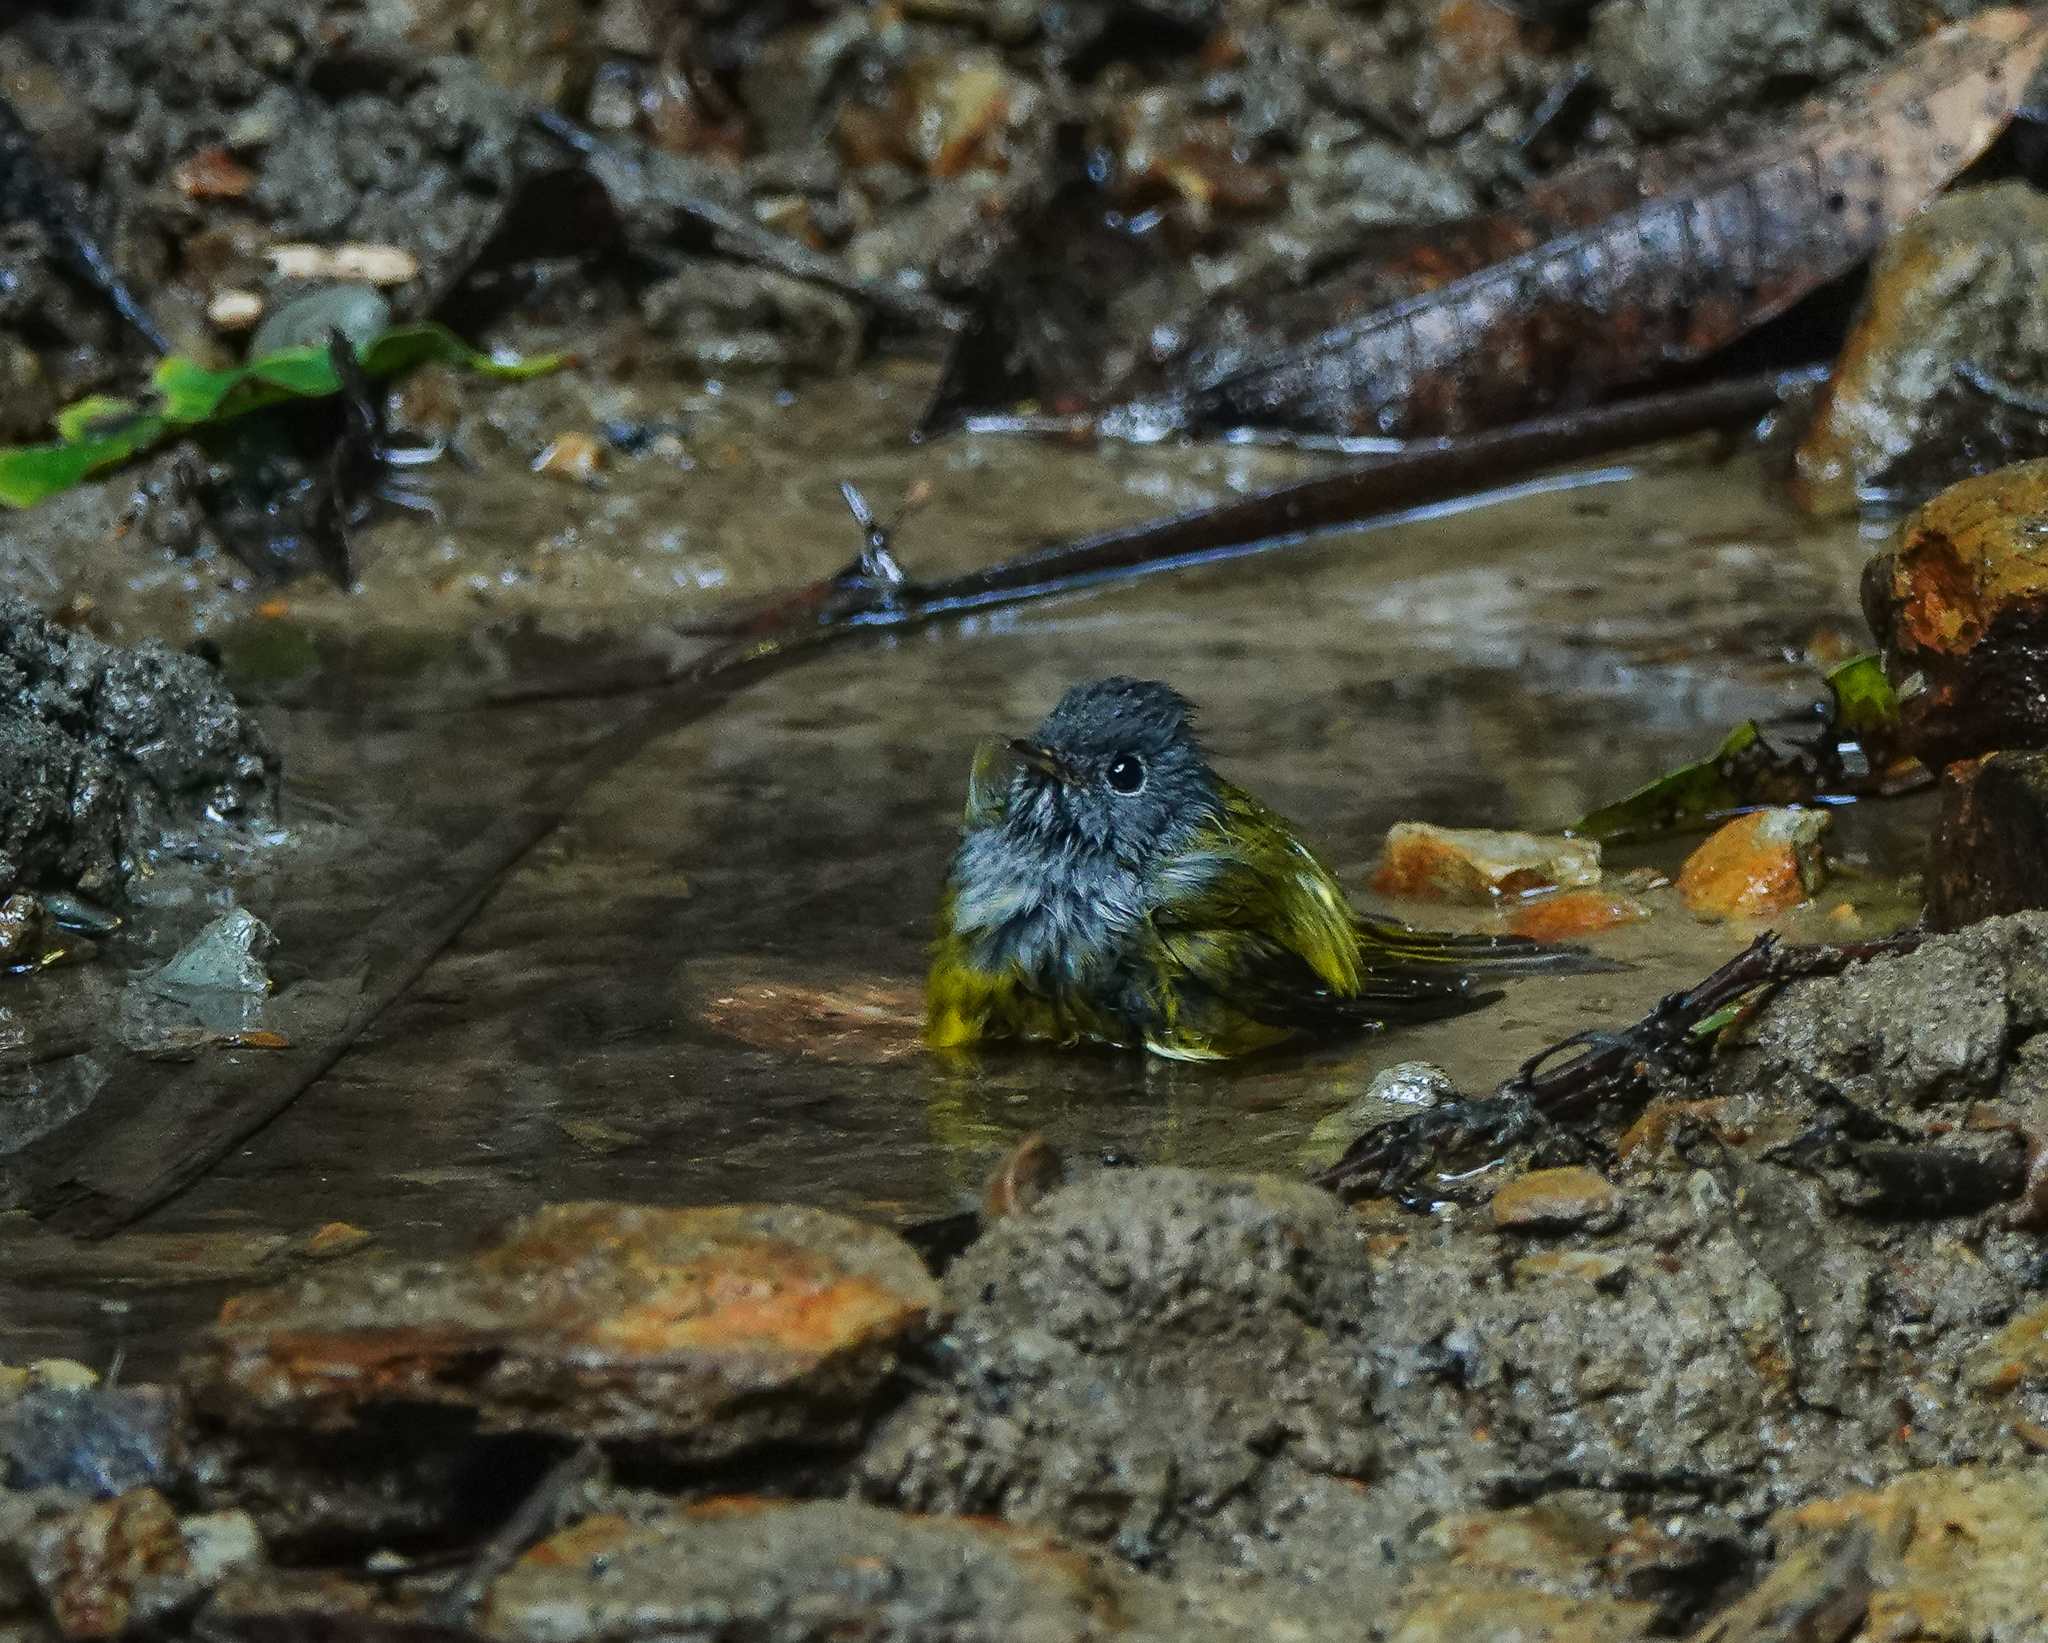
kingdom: Animalia
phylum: Chordata
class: Aves
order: Passeriformes
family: Stenostiridae
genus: Culicicapa
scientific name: Culicicapa ceylonensis
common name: Grey-headed canary-flycatcher
